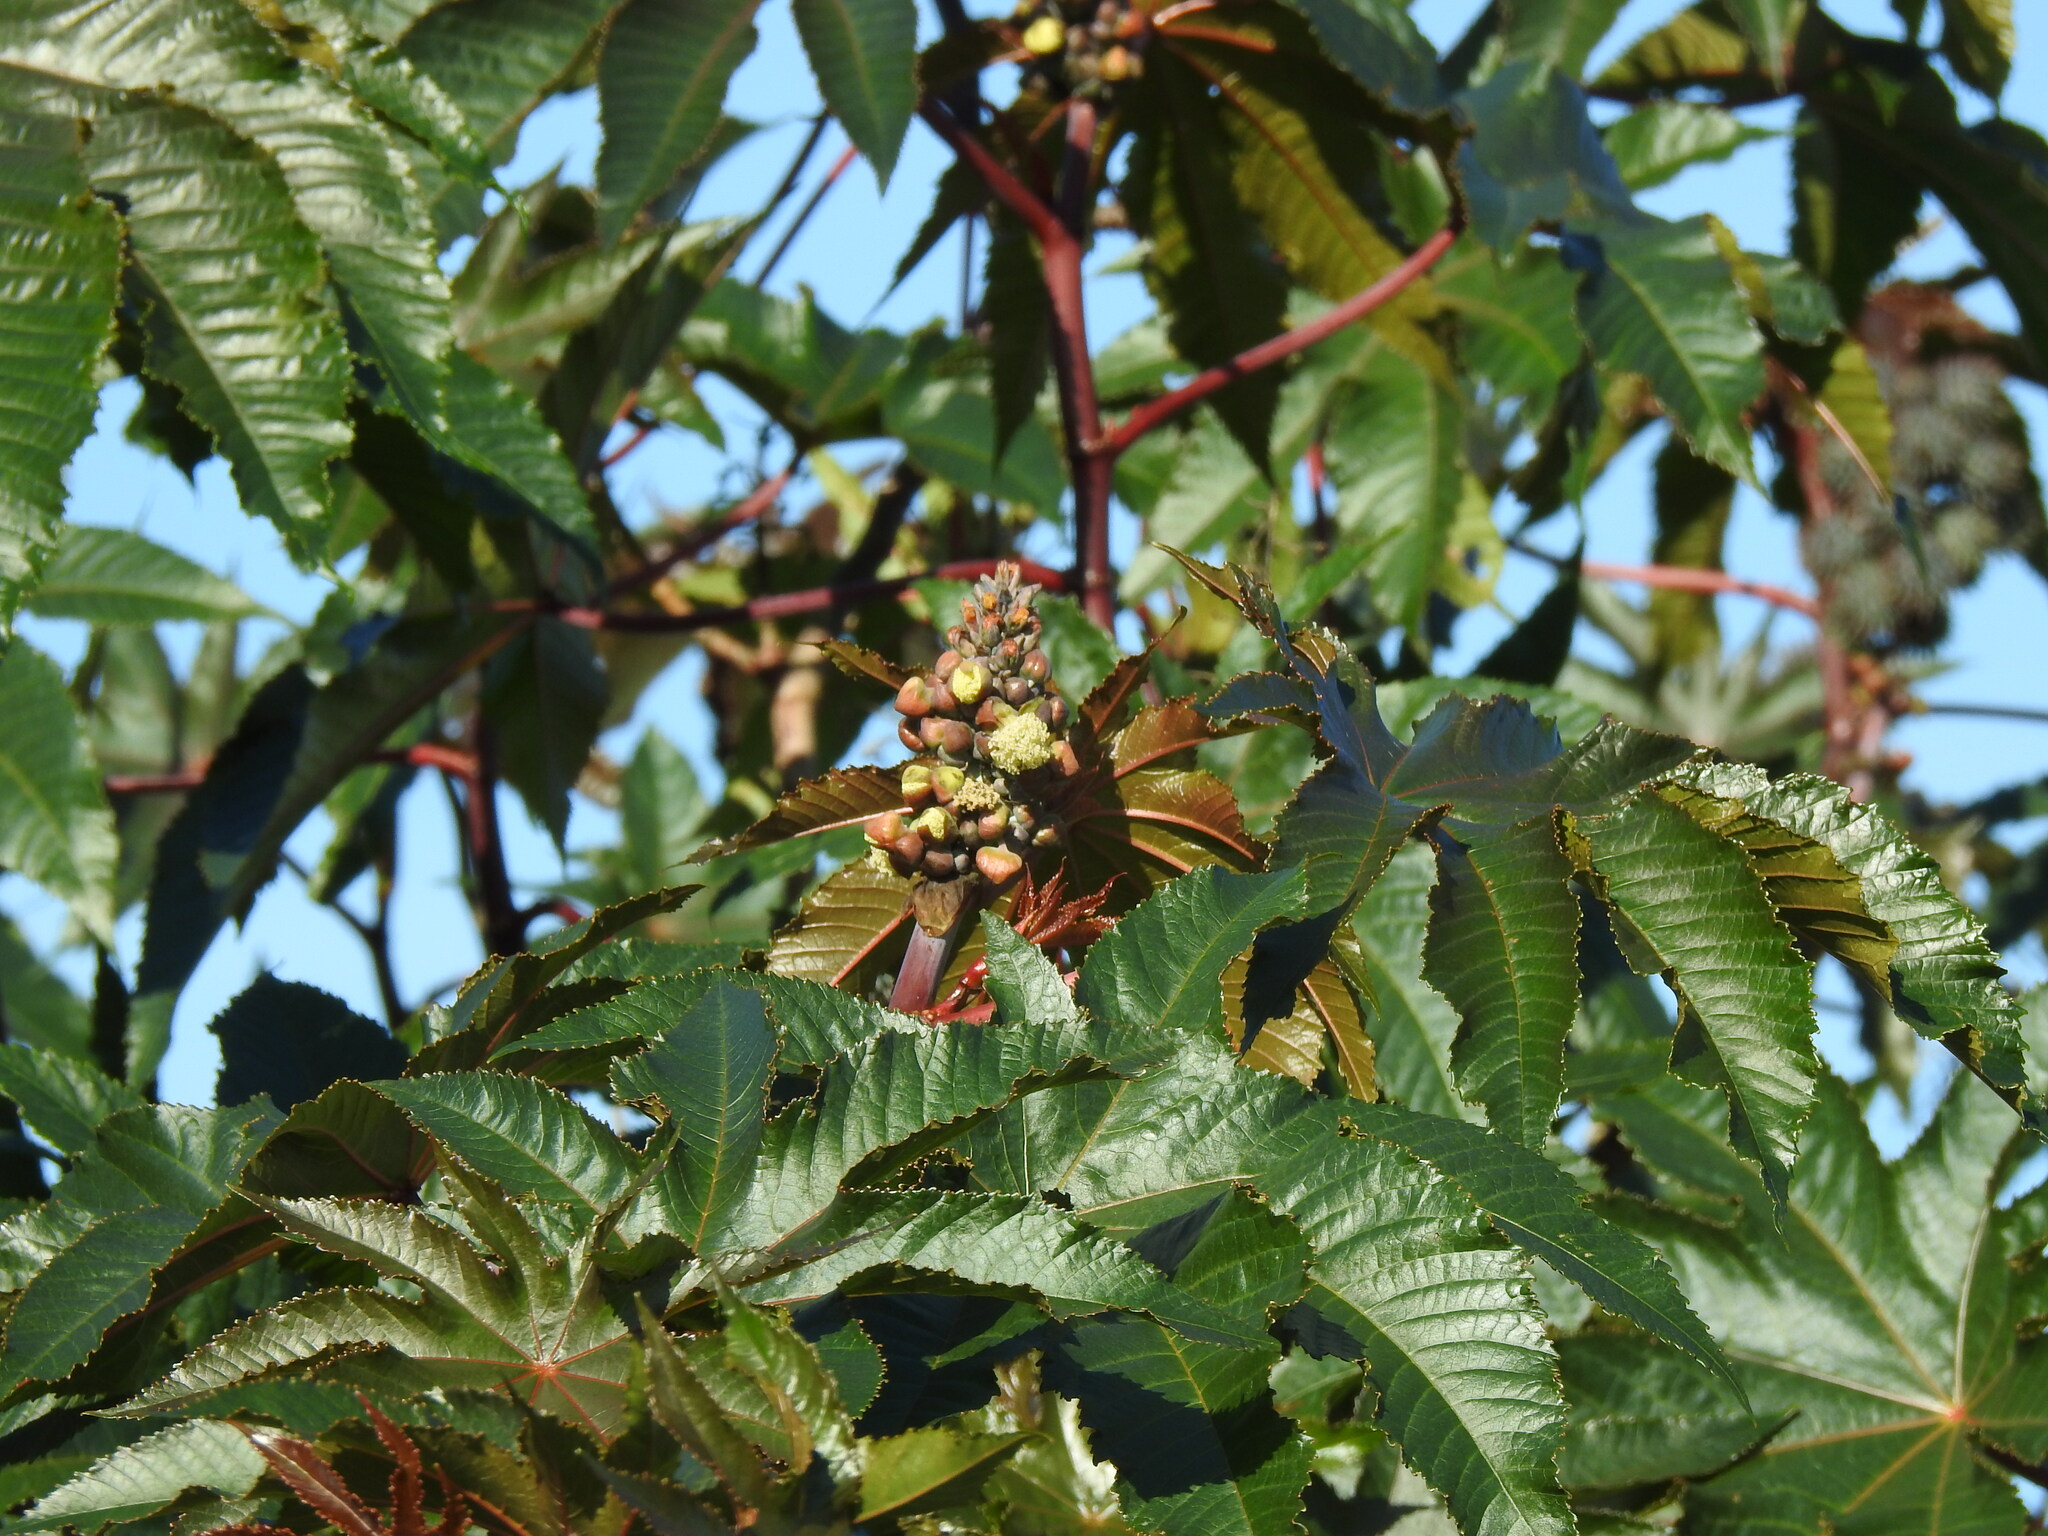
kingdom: Plantae
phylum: Tracheophyta
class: Magnoliopsida
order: Malpighiales
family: Euphorbiaceae
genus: Ricinus
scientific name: Ricinus communis
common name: Castor-oil-plant
